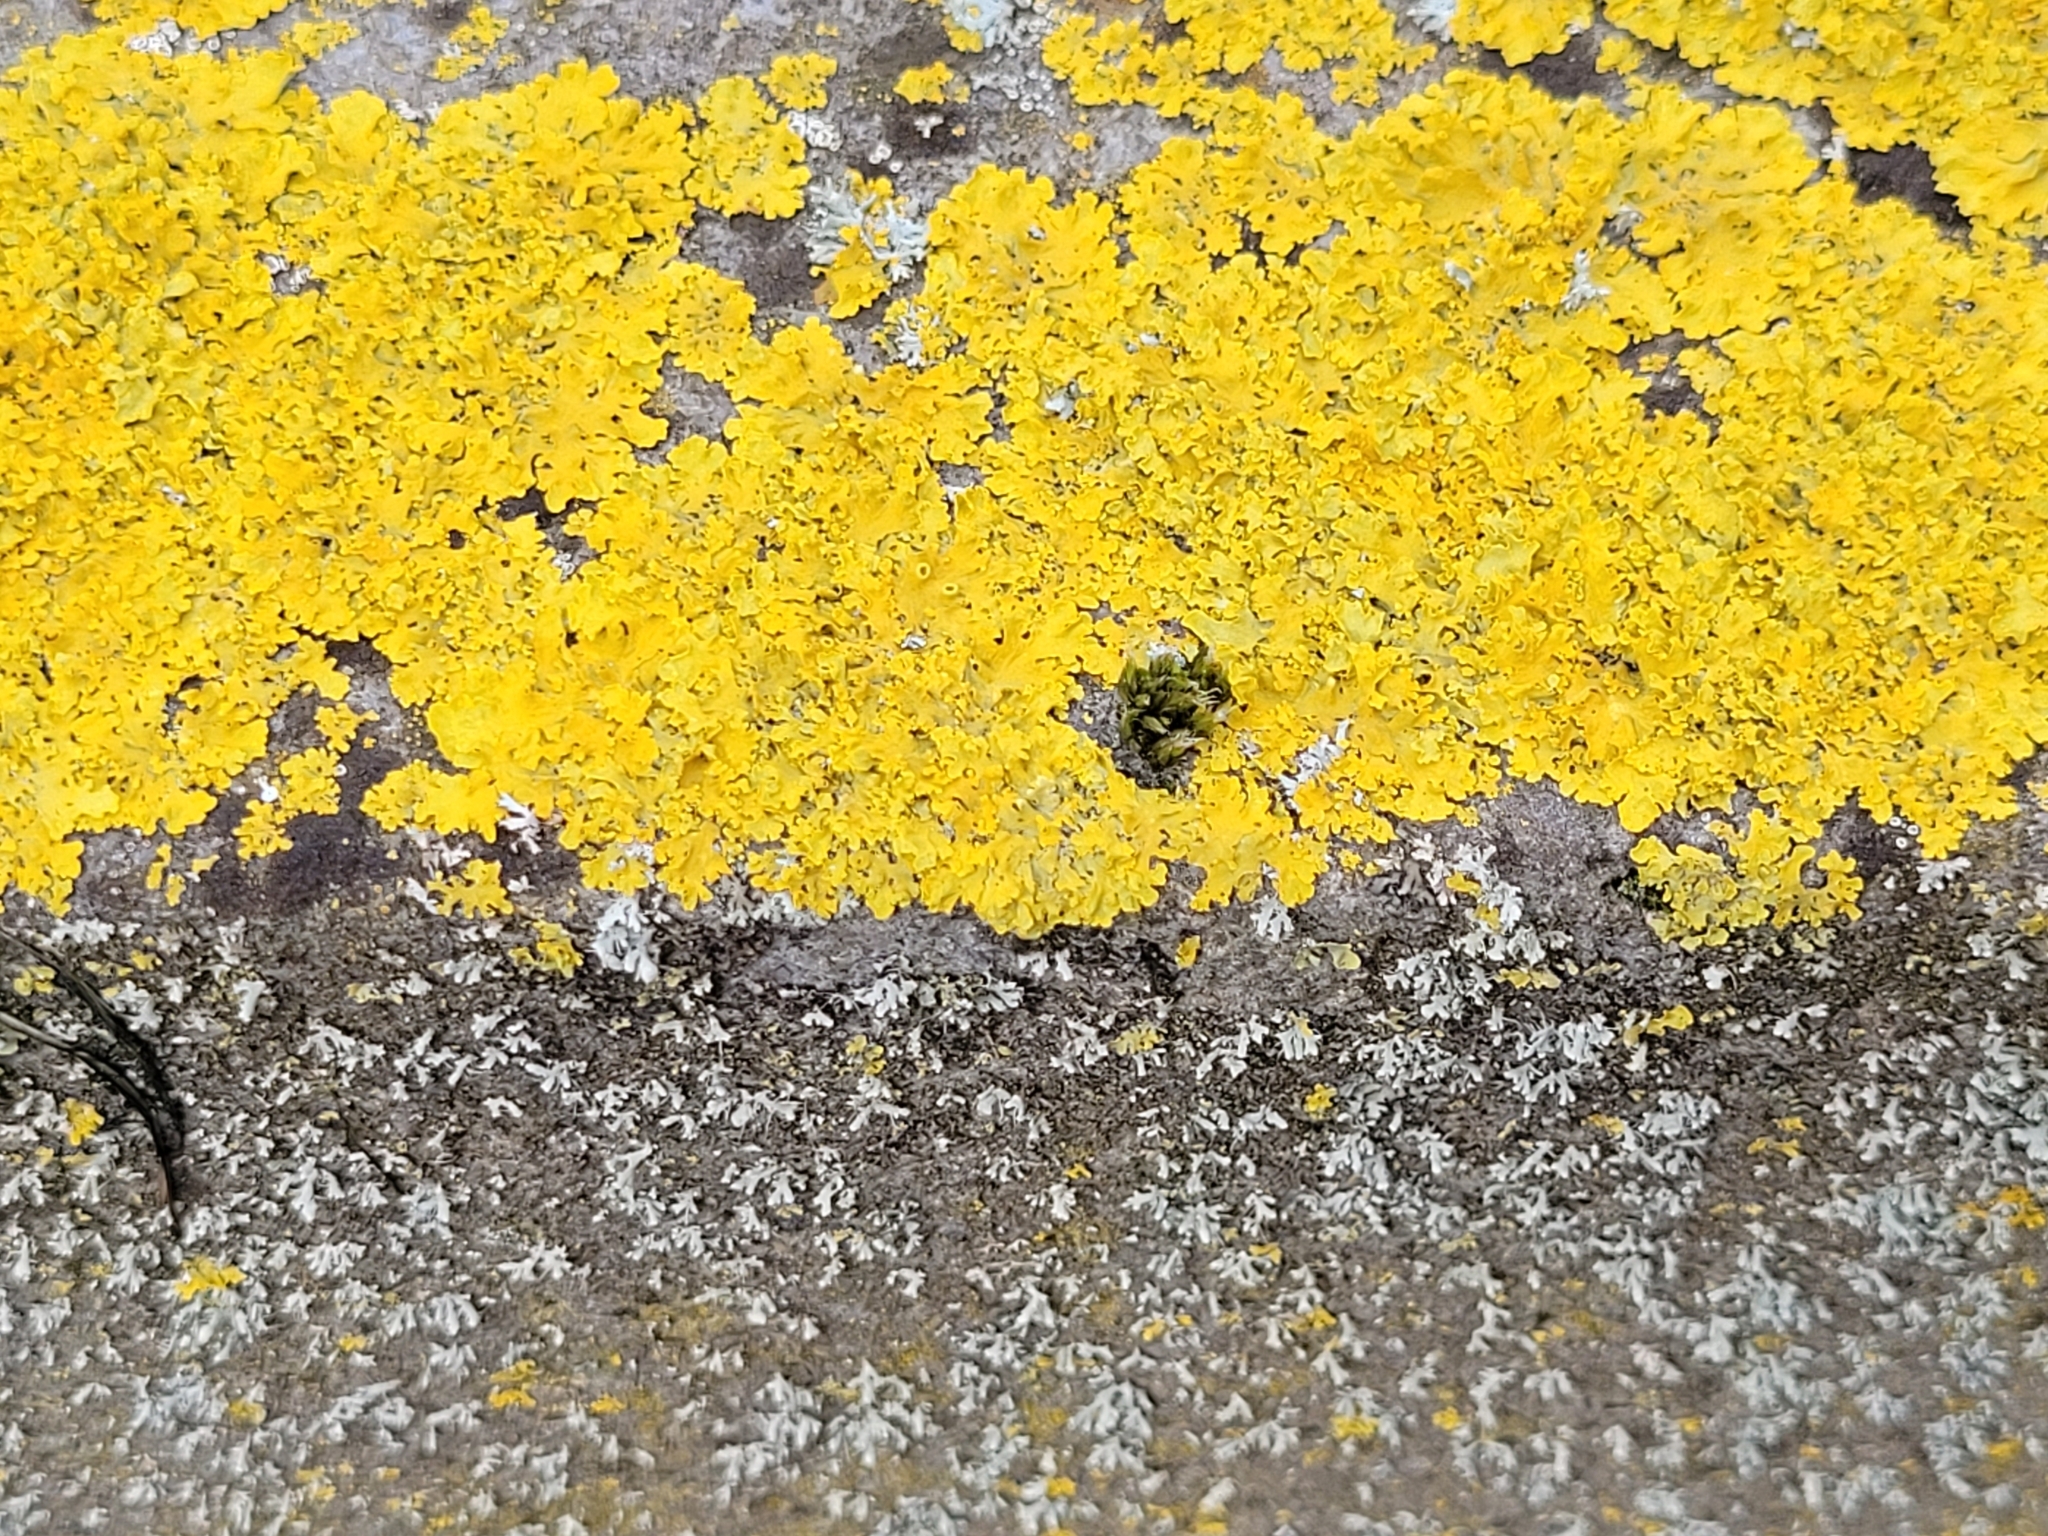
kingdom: Fungi
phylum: Ascomycota
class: Lecanoromycetes
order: Teloschistales
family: Teloschistaceae
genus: Xanthoria
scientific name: Xanthoria parietina
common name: Common orange lichen
